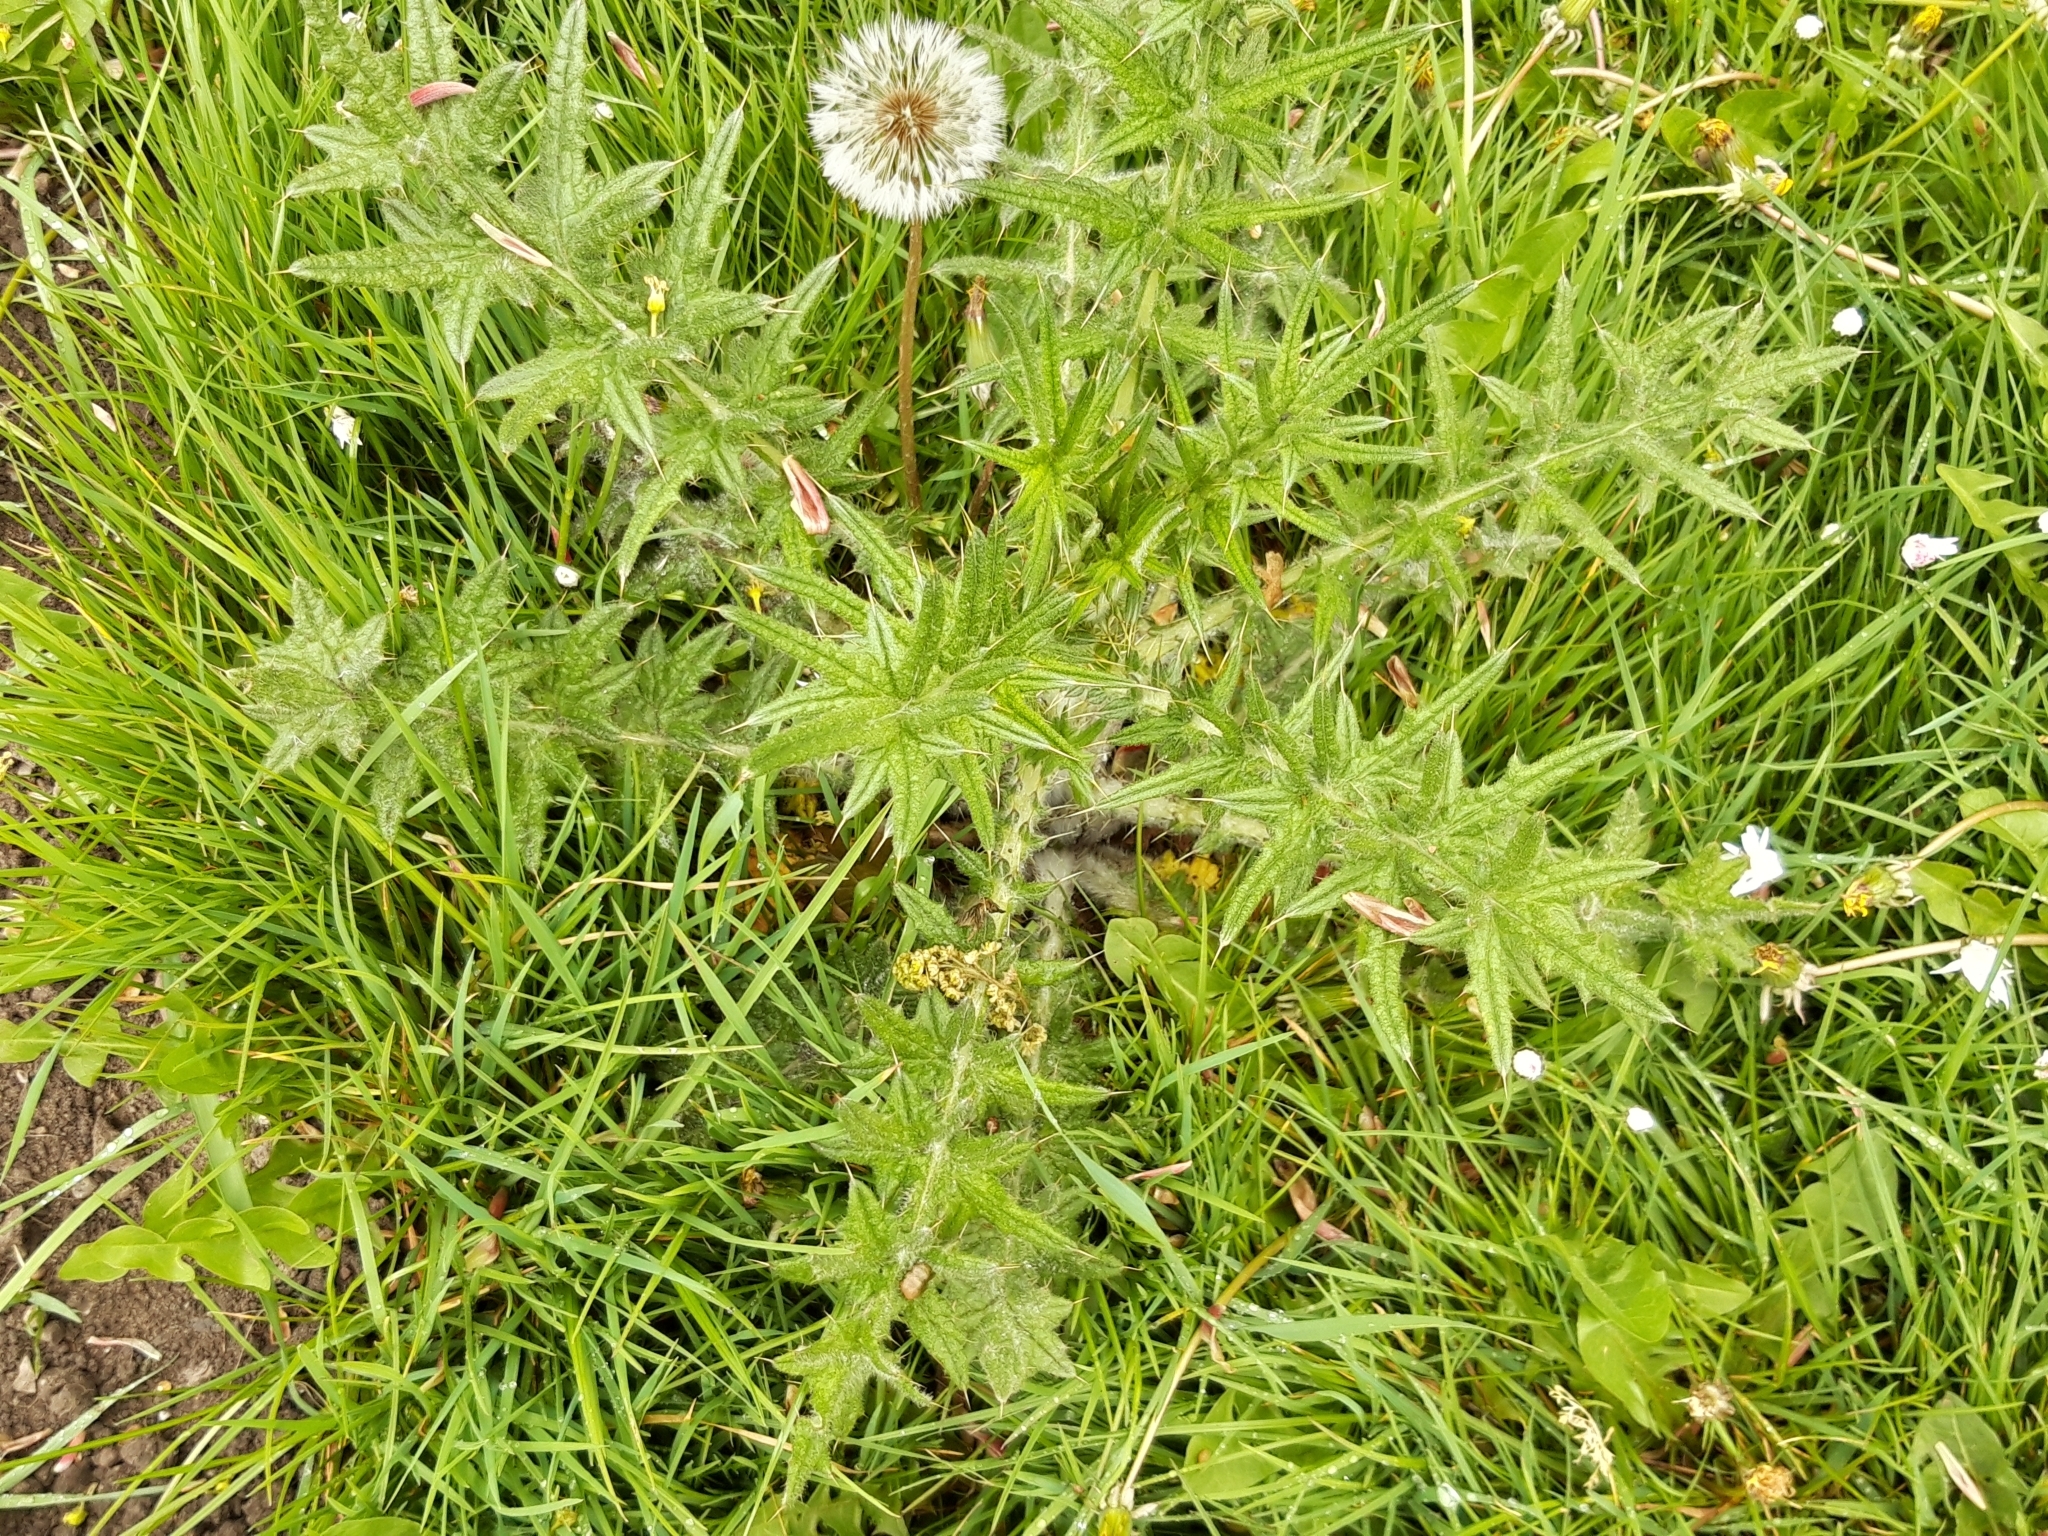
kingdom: Plantae
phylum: Tracheophyta
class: Magnoliopsida
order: Asterales
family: Asteraceae
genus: Cirsium
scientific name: Cirsium vulgare
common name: Bull thistle
